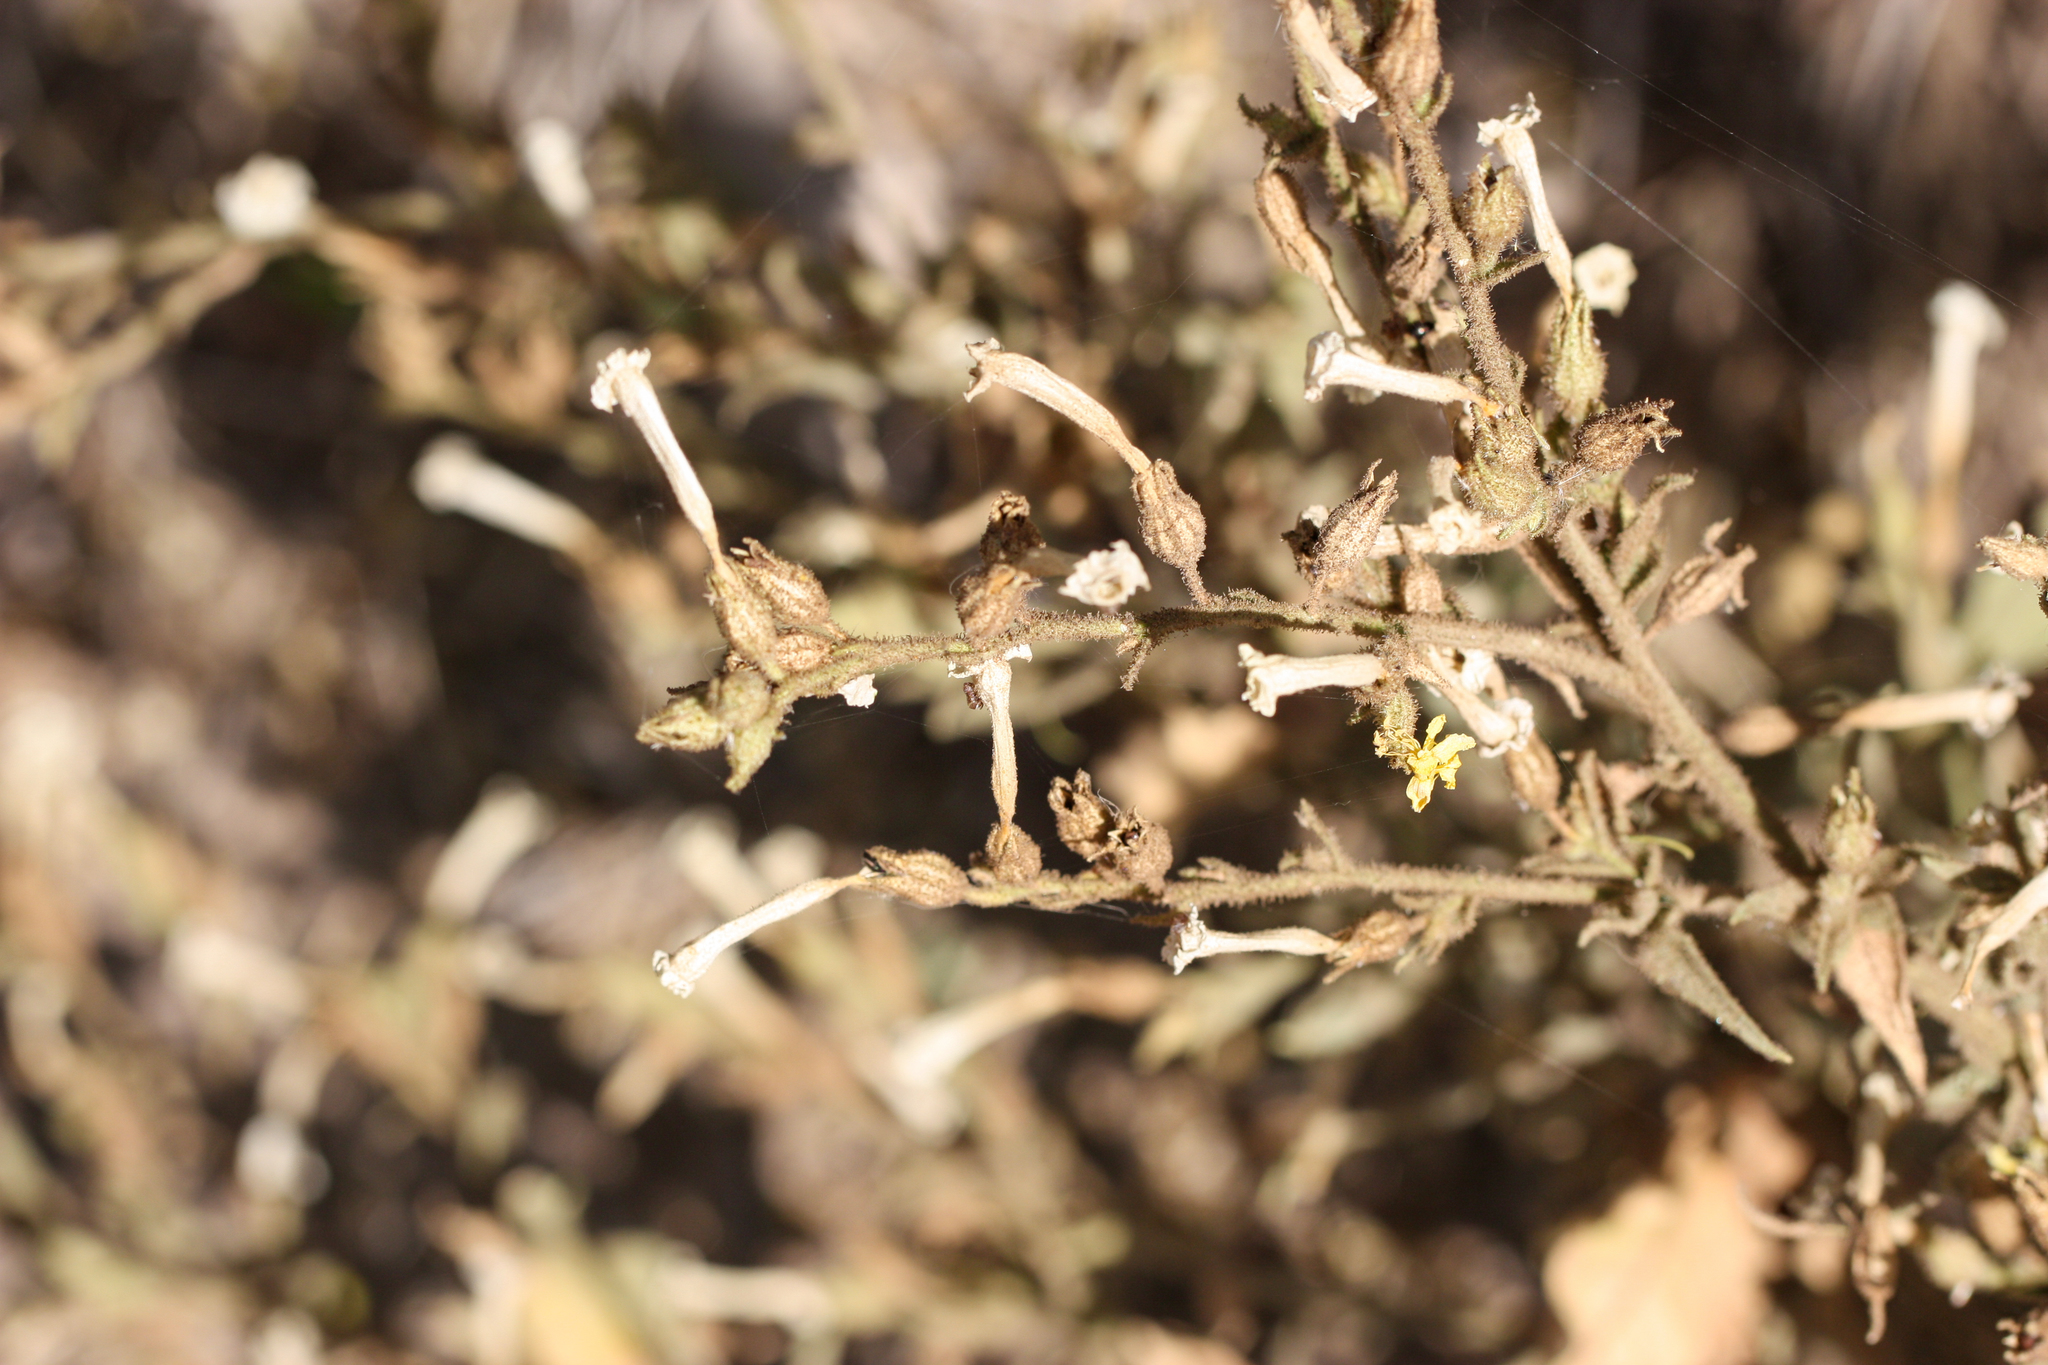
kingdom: Plantae
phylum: Tracheophyta
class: Magnoliopsida
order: Solanales
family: Solanaceae
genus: Nicotiana
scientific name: Nicotiana obtusifolia
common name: Desert tobacco
